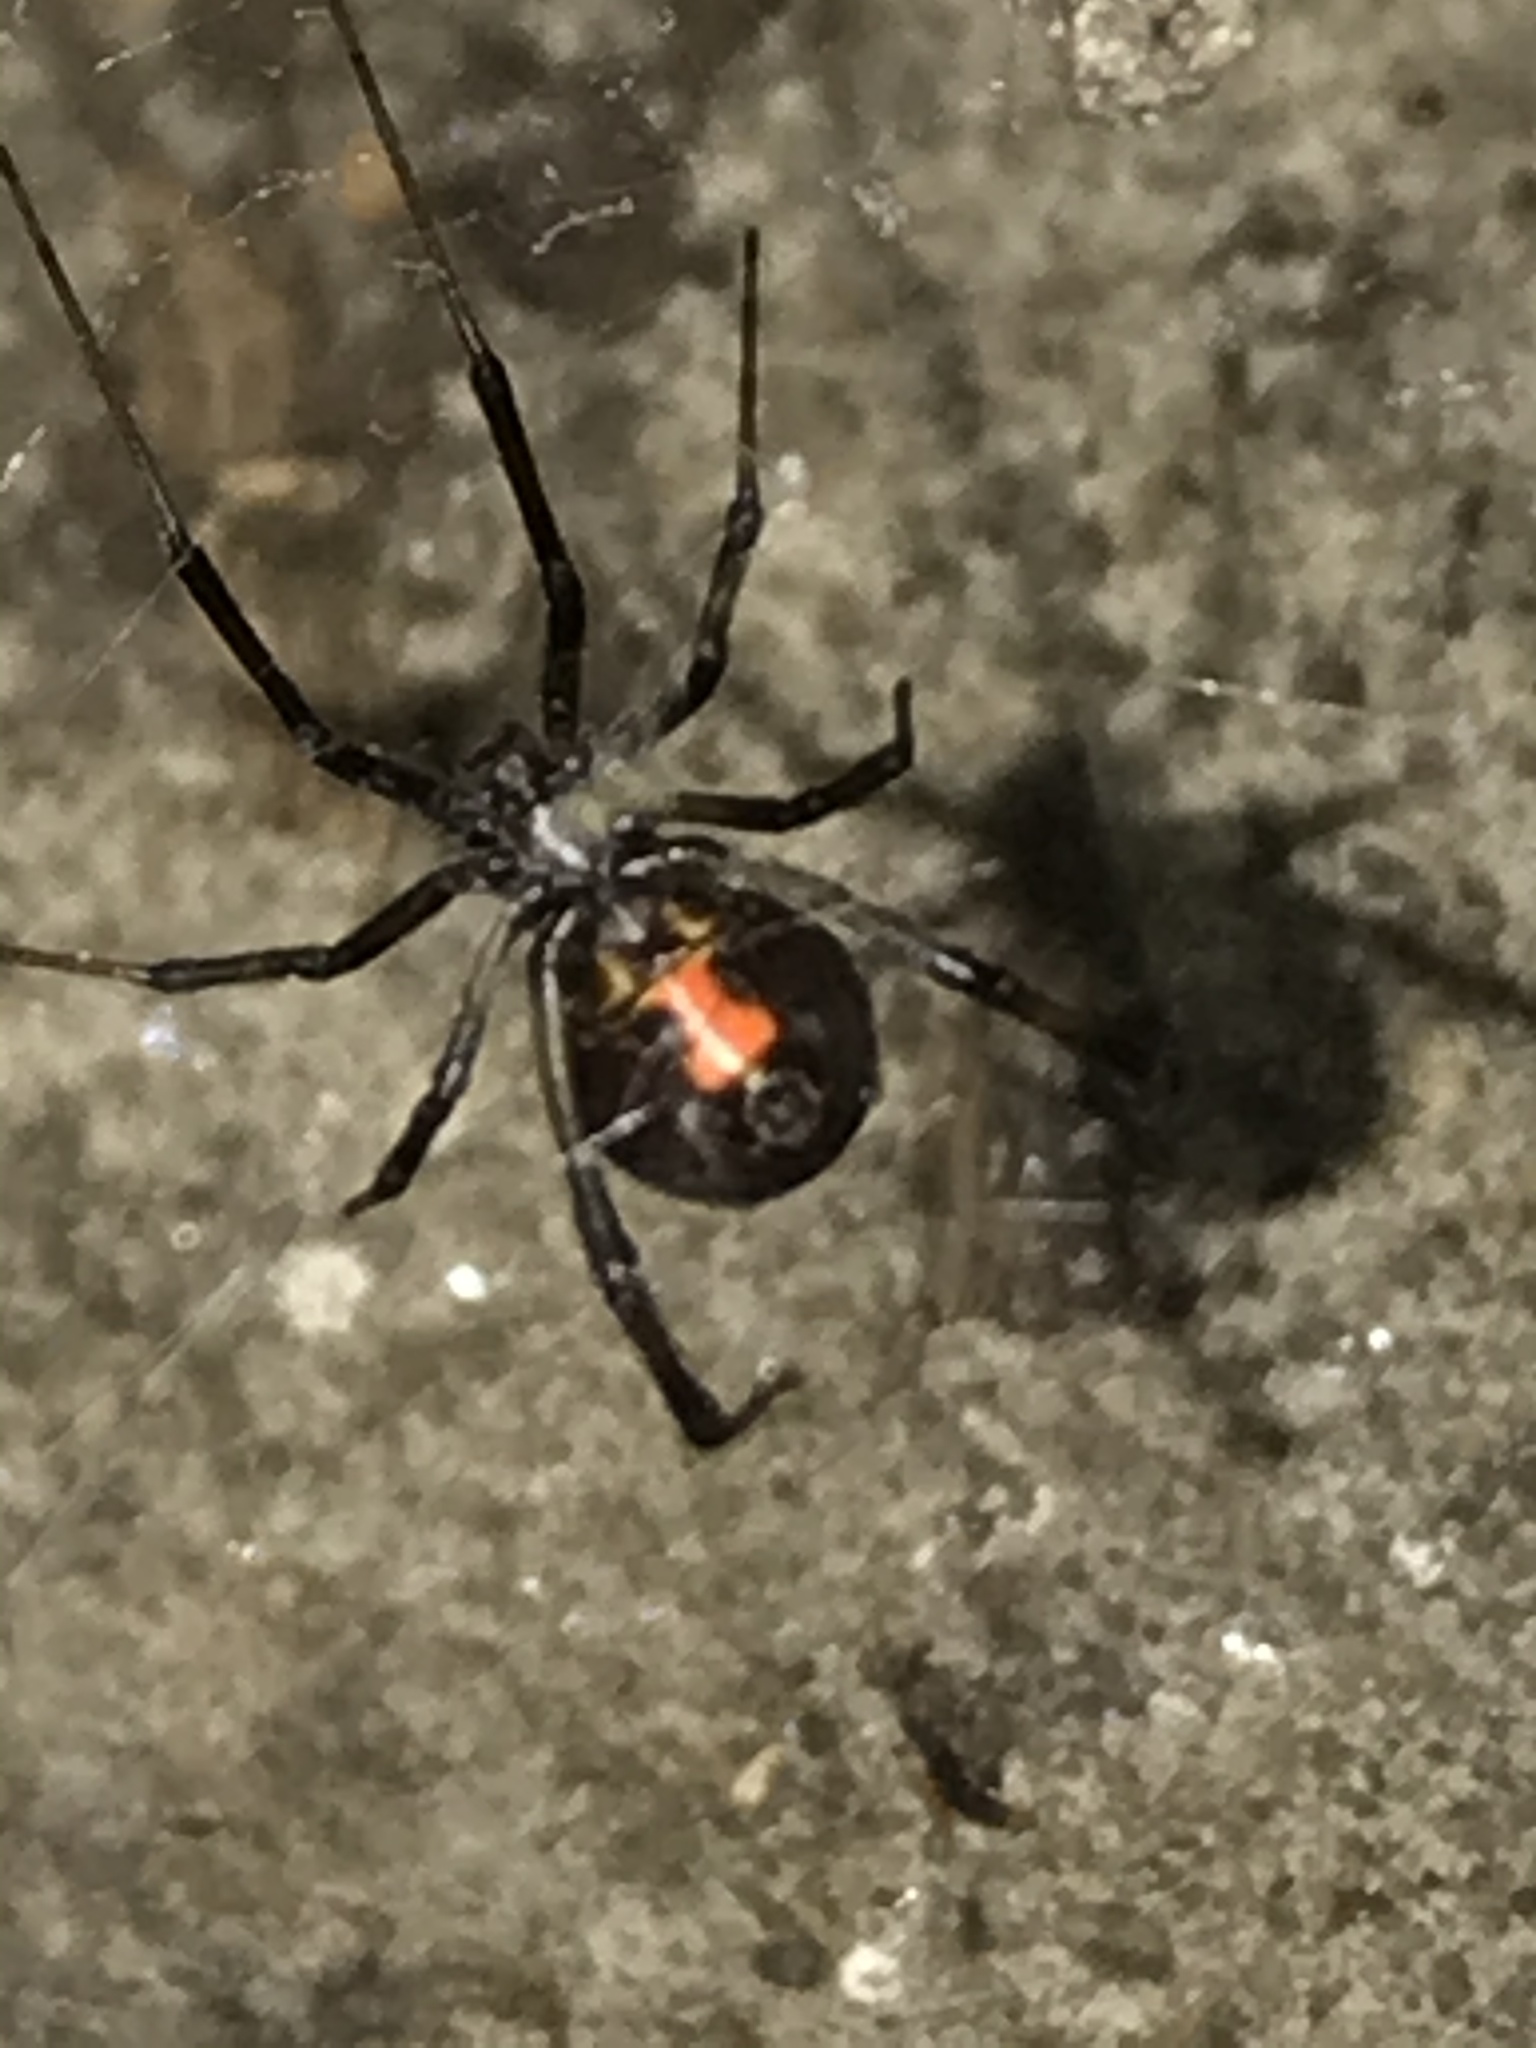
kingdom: Animalia
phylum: Arthropoda
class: Arachnida
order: Araneae
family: Theridiidae
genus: Latrodectus
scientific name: Latrodectus geometricus
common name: Brown widow spider
